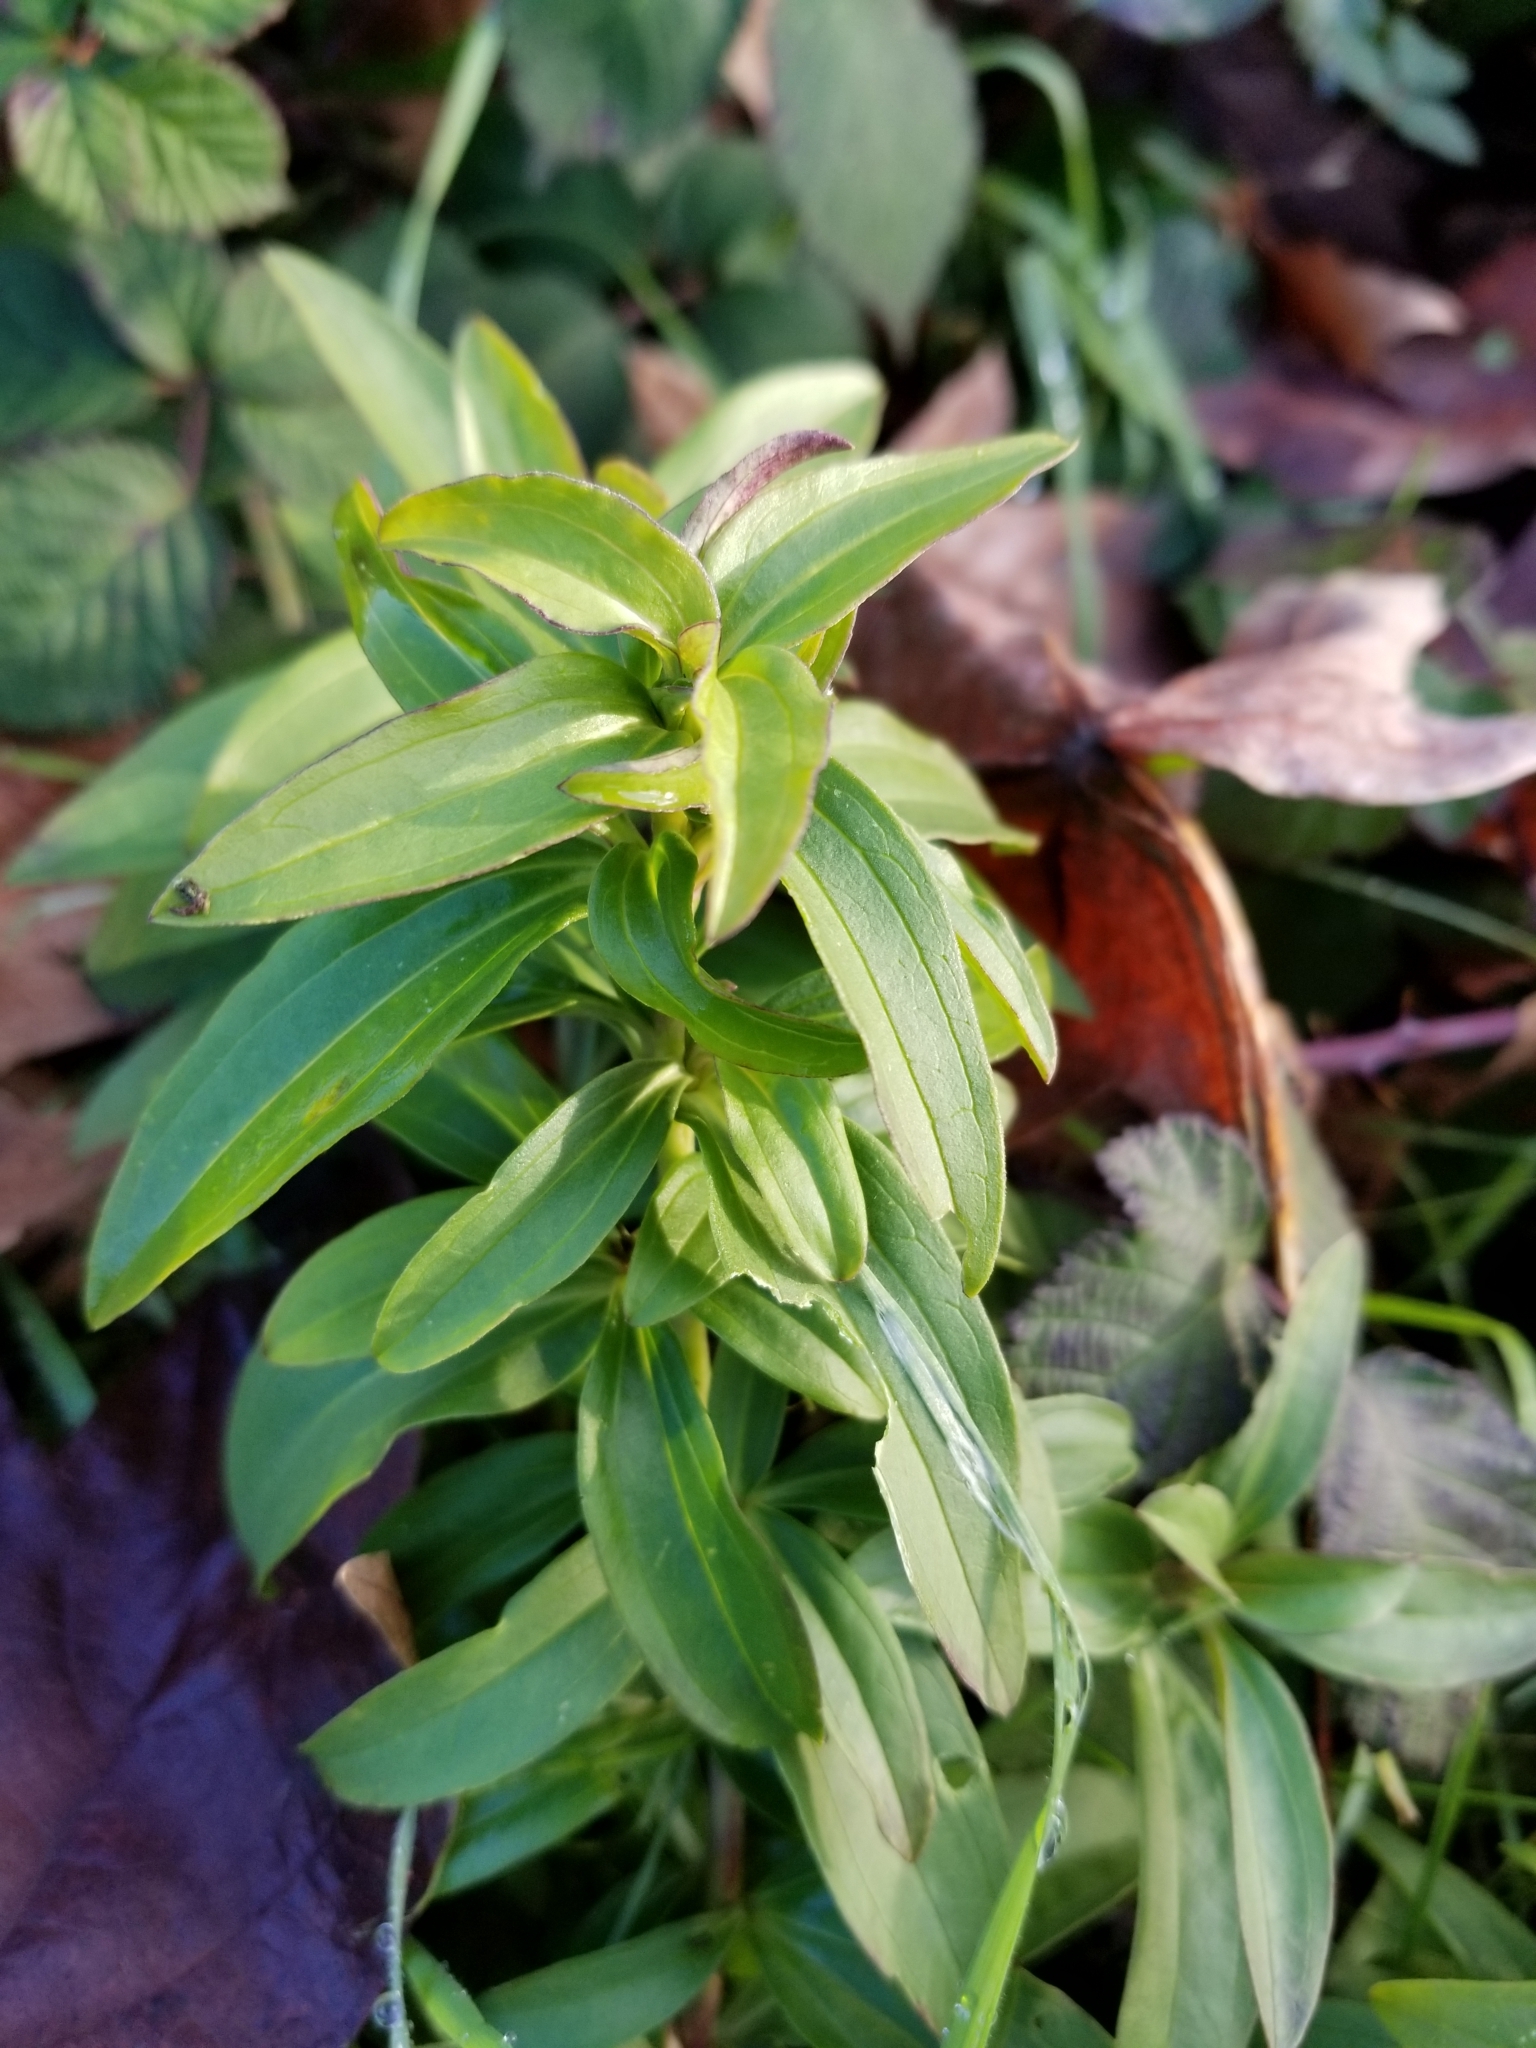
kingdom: Plantae
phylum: Tracheophyta
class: Magnoliopsida
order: Caryophyllales
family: Caryophyllaceae
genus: Saponaria
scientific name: Saponaria officinalis
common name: Soapwort
